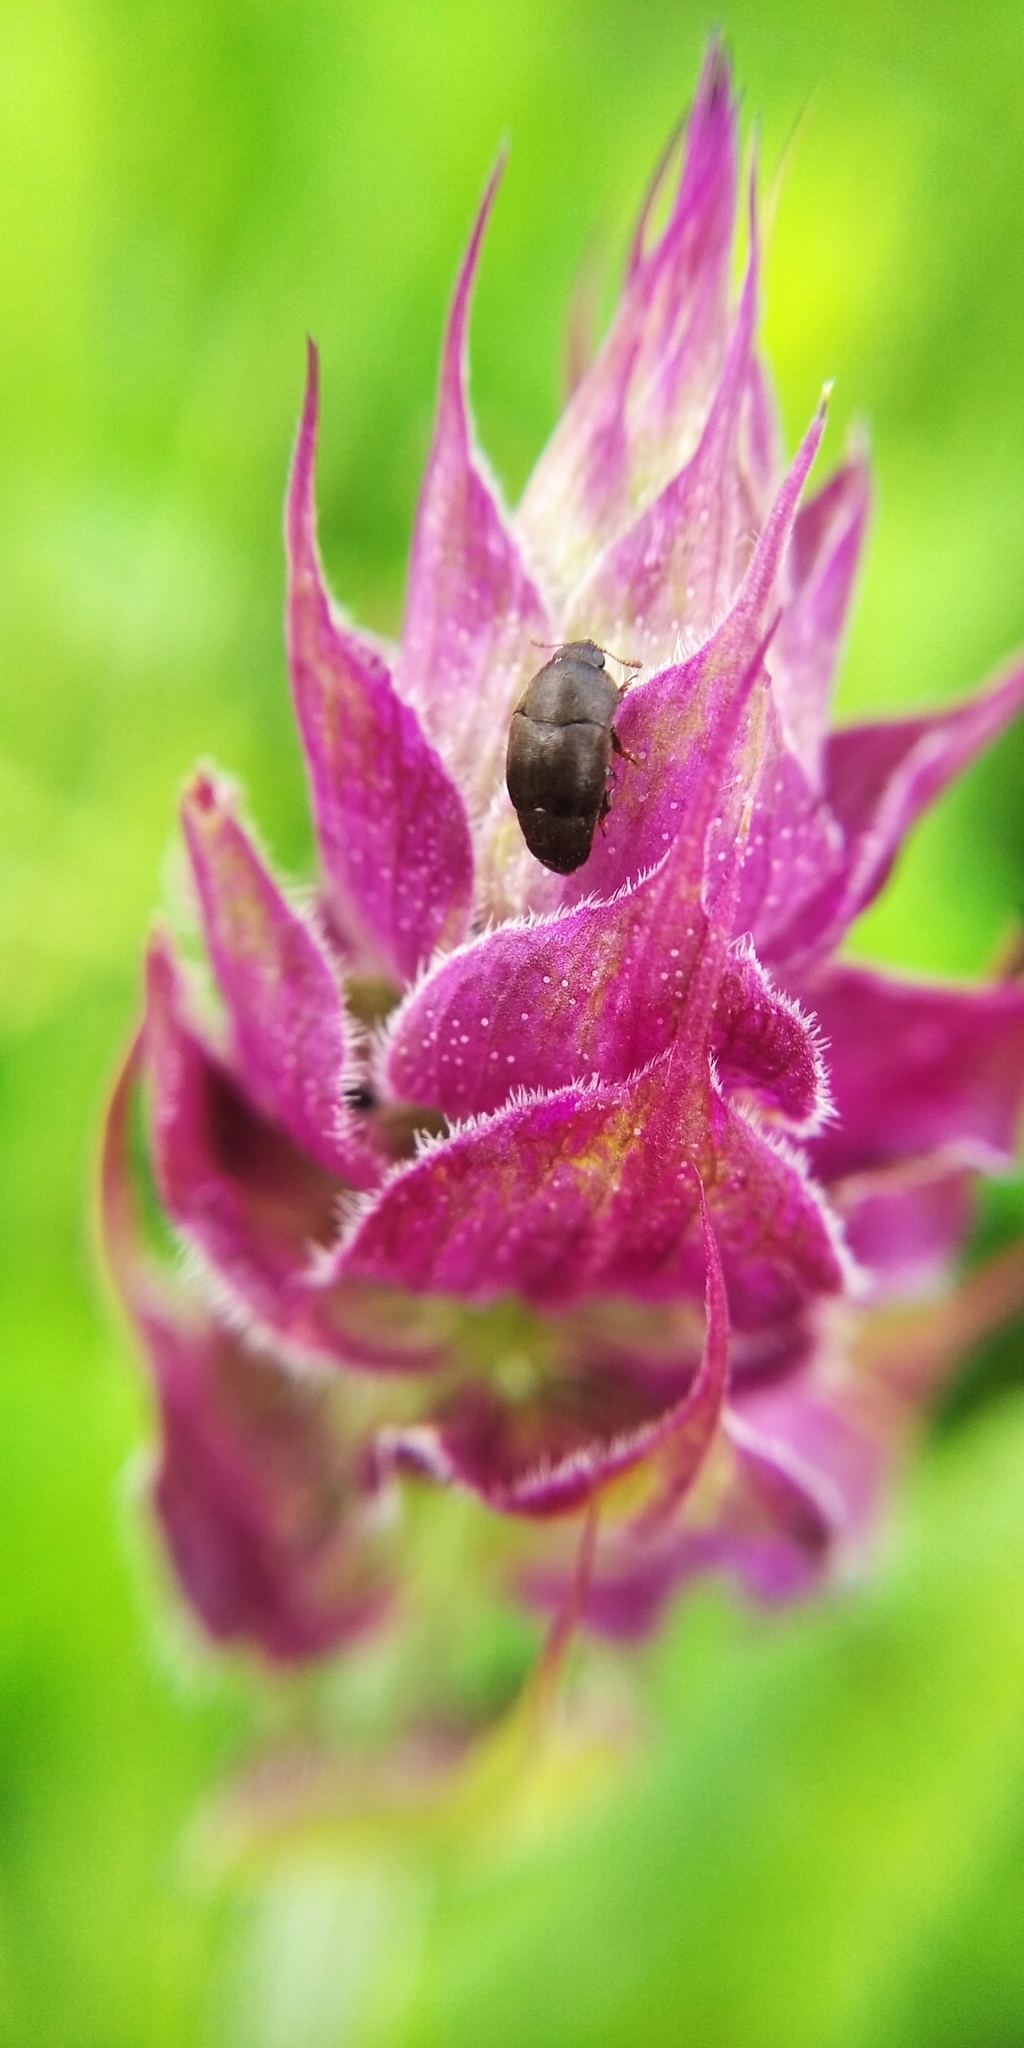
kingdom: Plantae
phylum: Tracheophyta
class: Magnoliopsida
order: Lamiales
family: Lamiaceae
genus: Salvia
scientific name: Salvia nemorosa
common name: Balkan clary
